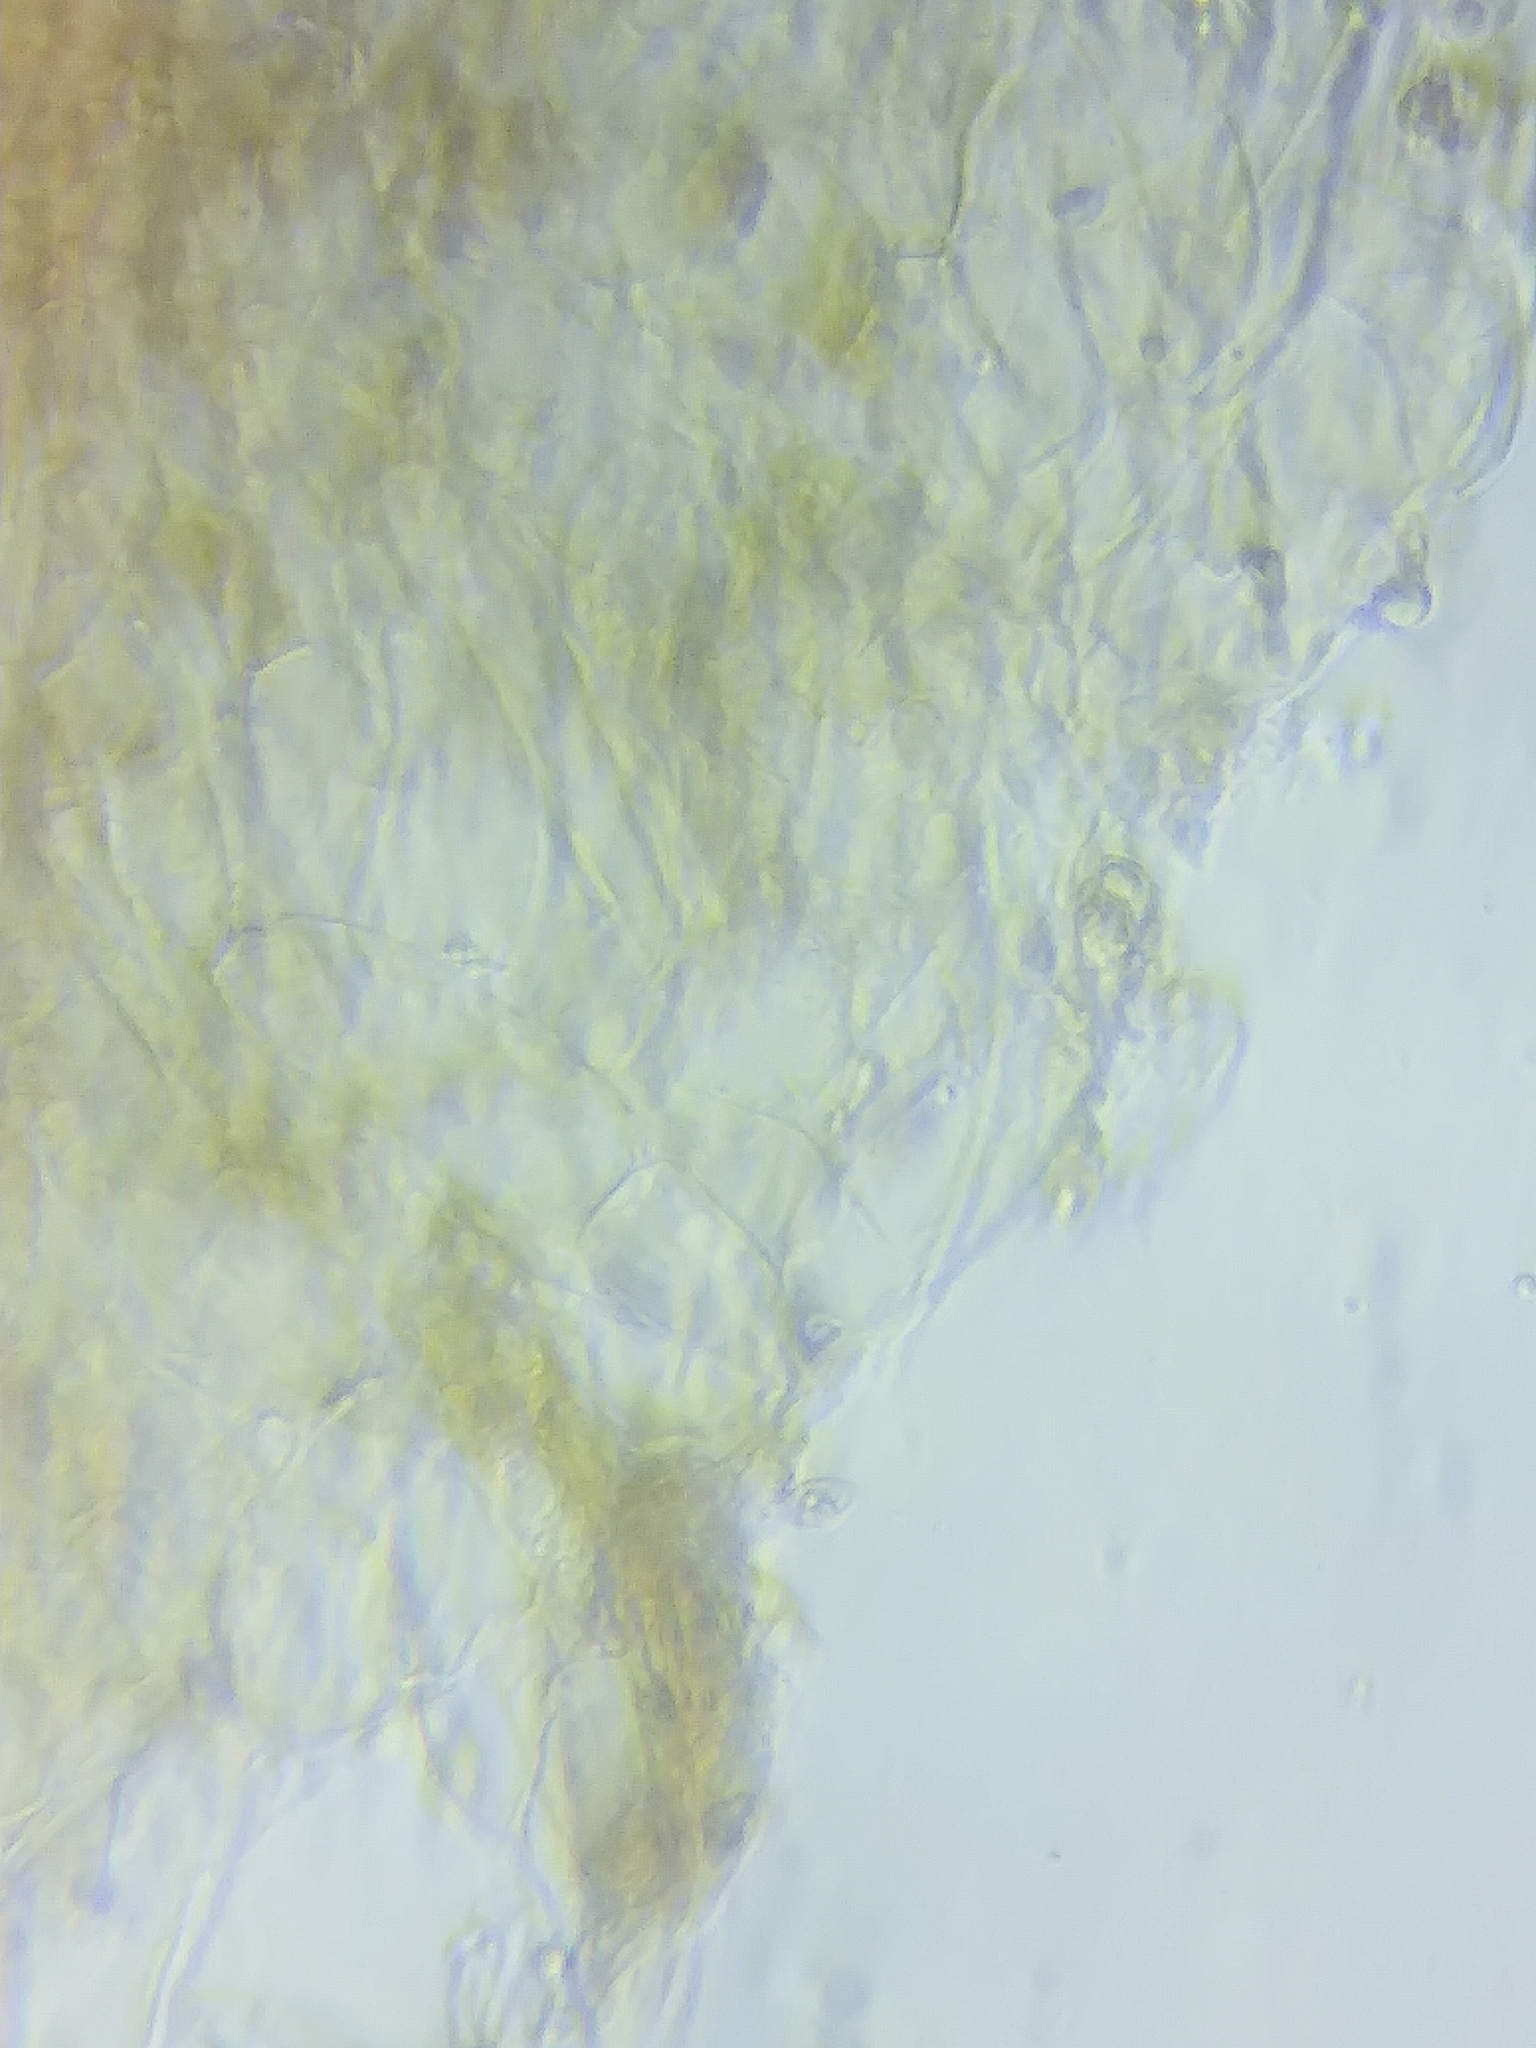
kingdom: Fungi
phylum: Basidiomycota
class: Agaricomycetes
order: Agaricales
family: Tubariaceae
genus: Tubaria
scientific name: Tubaria conspersa
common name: Felted twiglet
